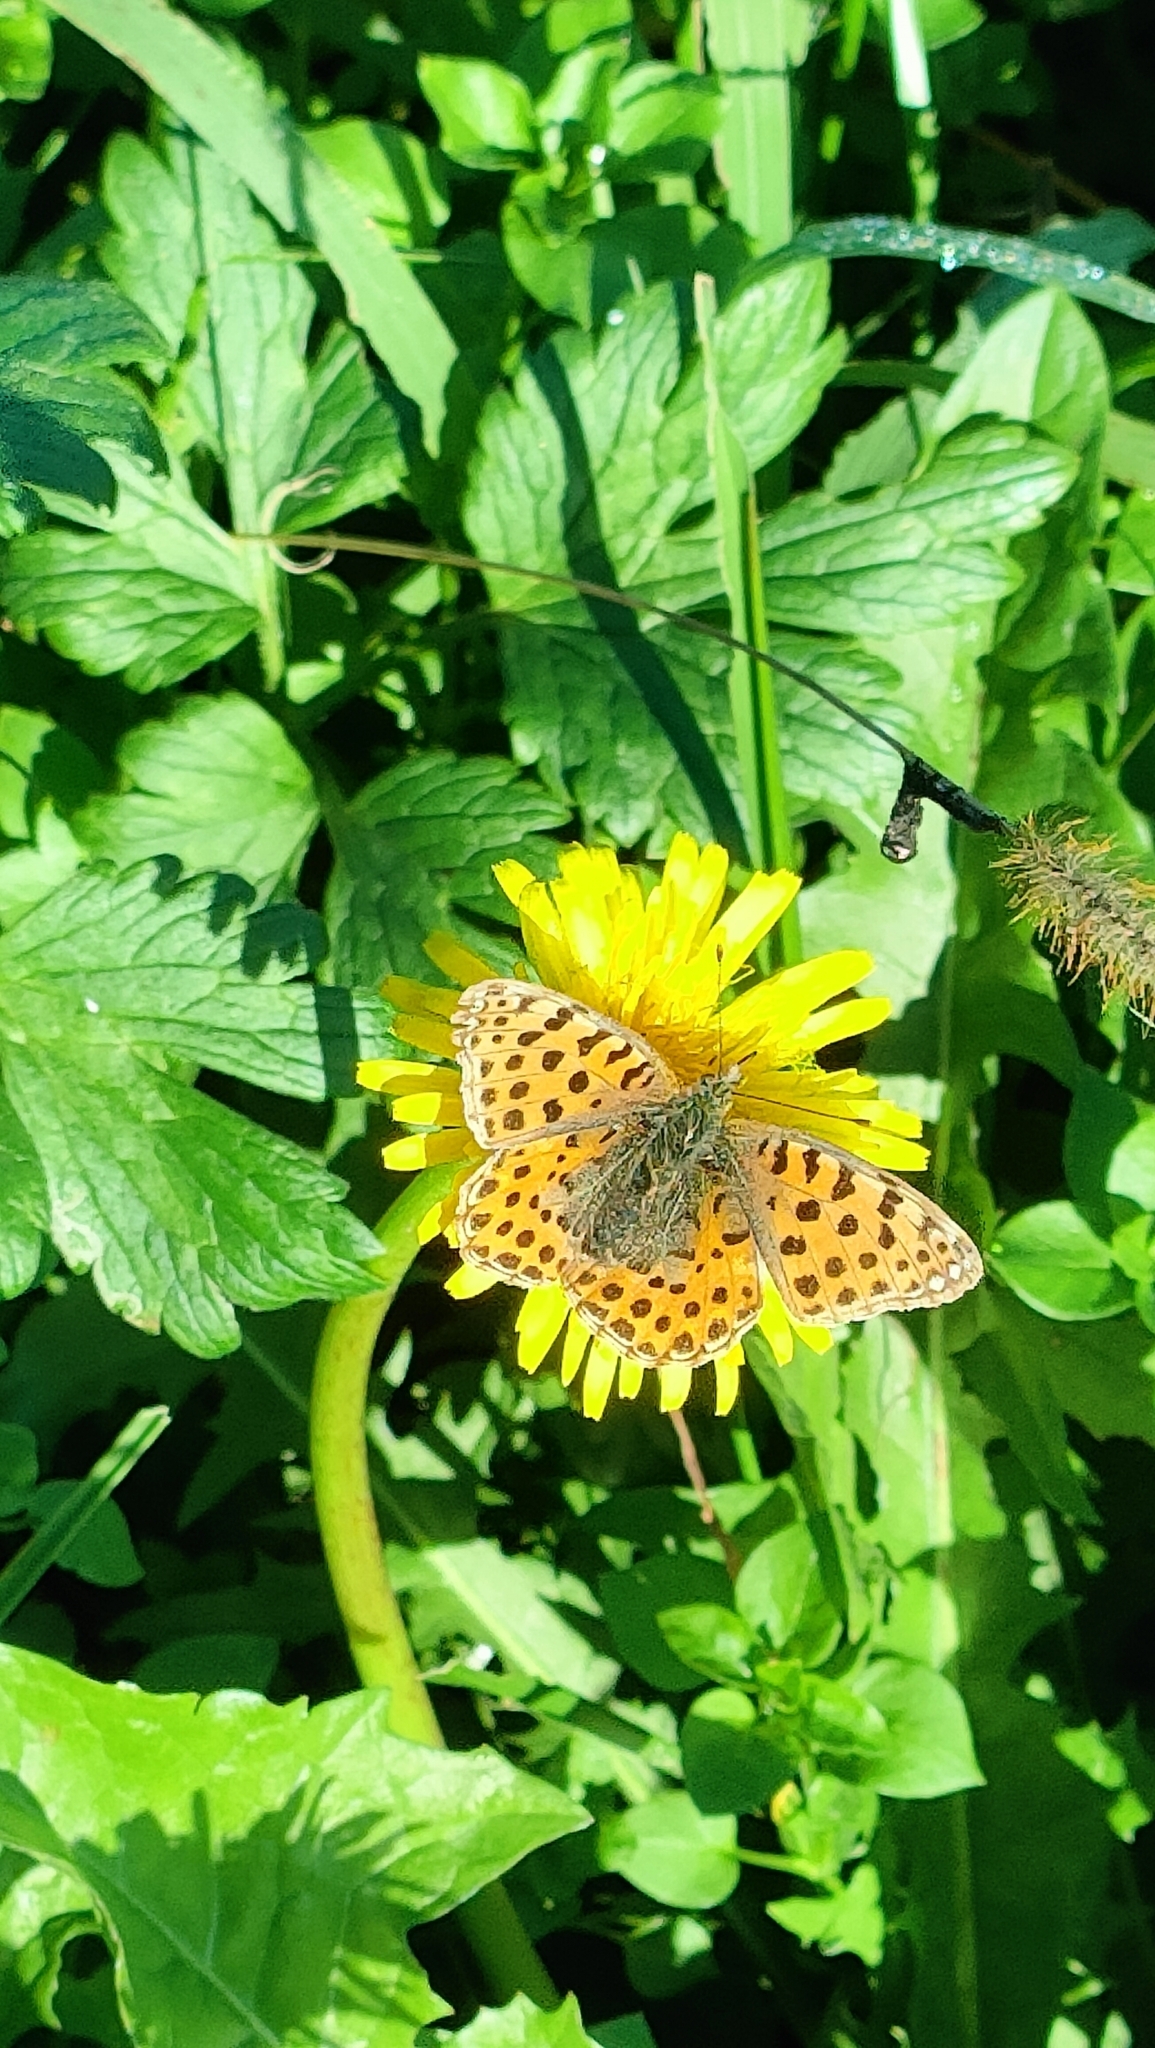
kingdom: Animalia
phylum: Arthropoda
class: Insecta
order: Lepidoptera
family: Nymphalidae
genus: Issoria
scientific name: Issoria lathonia
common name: Queen of spain fritillary
